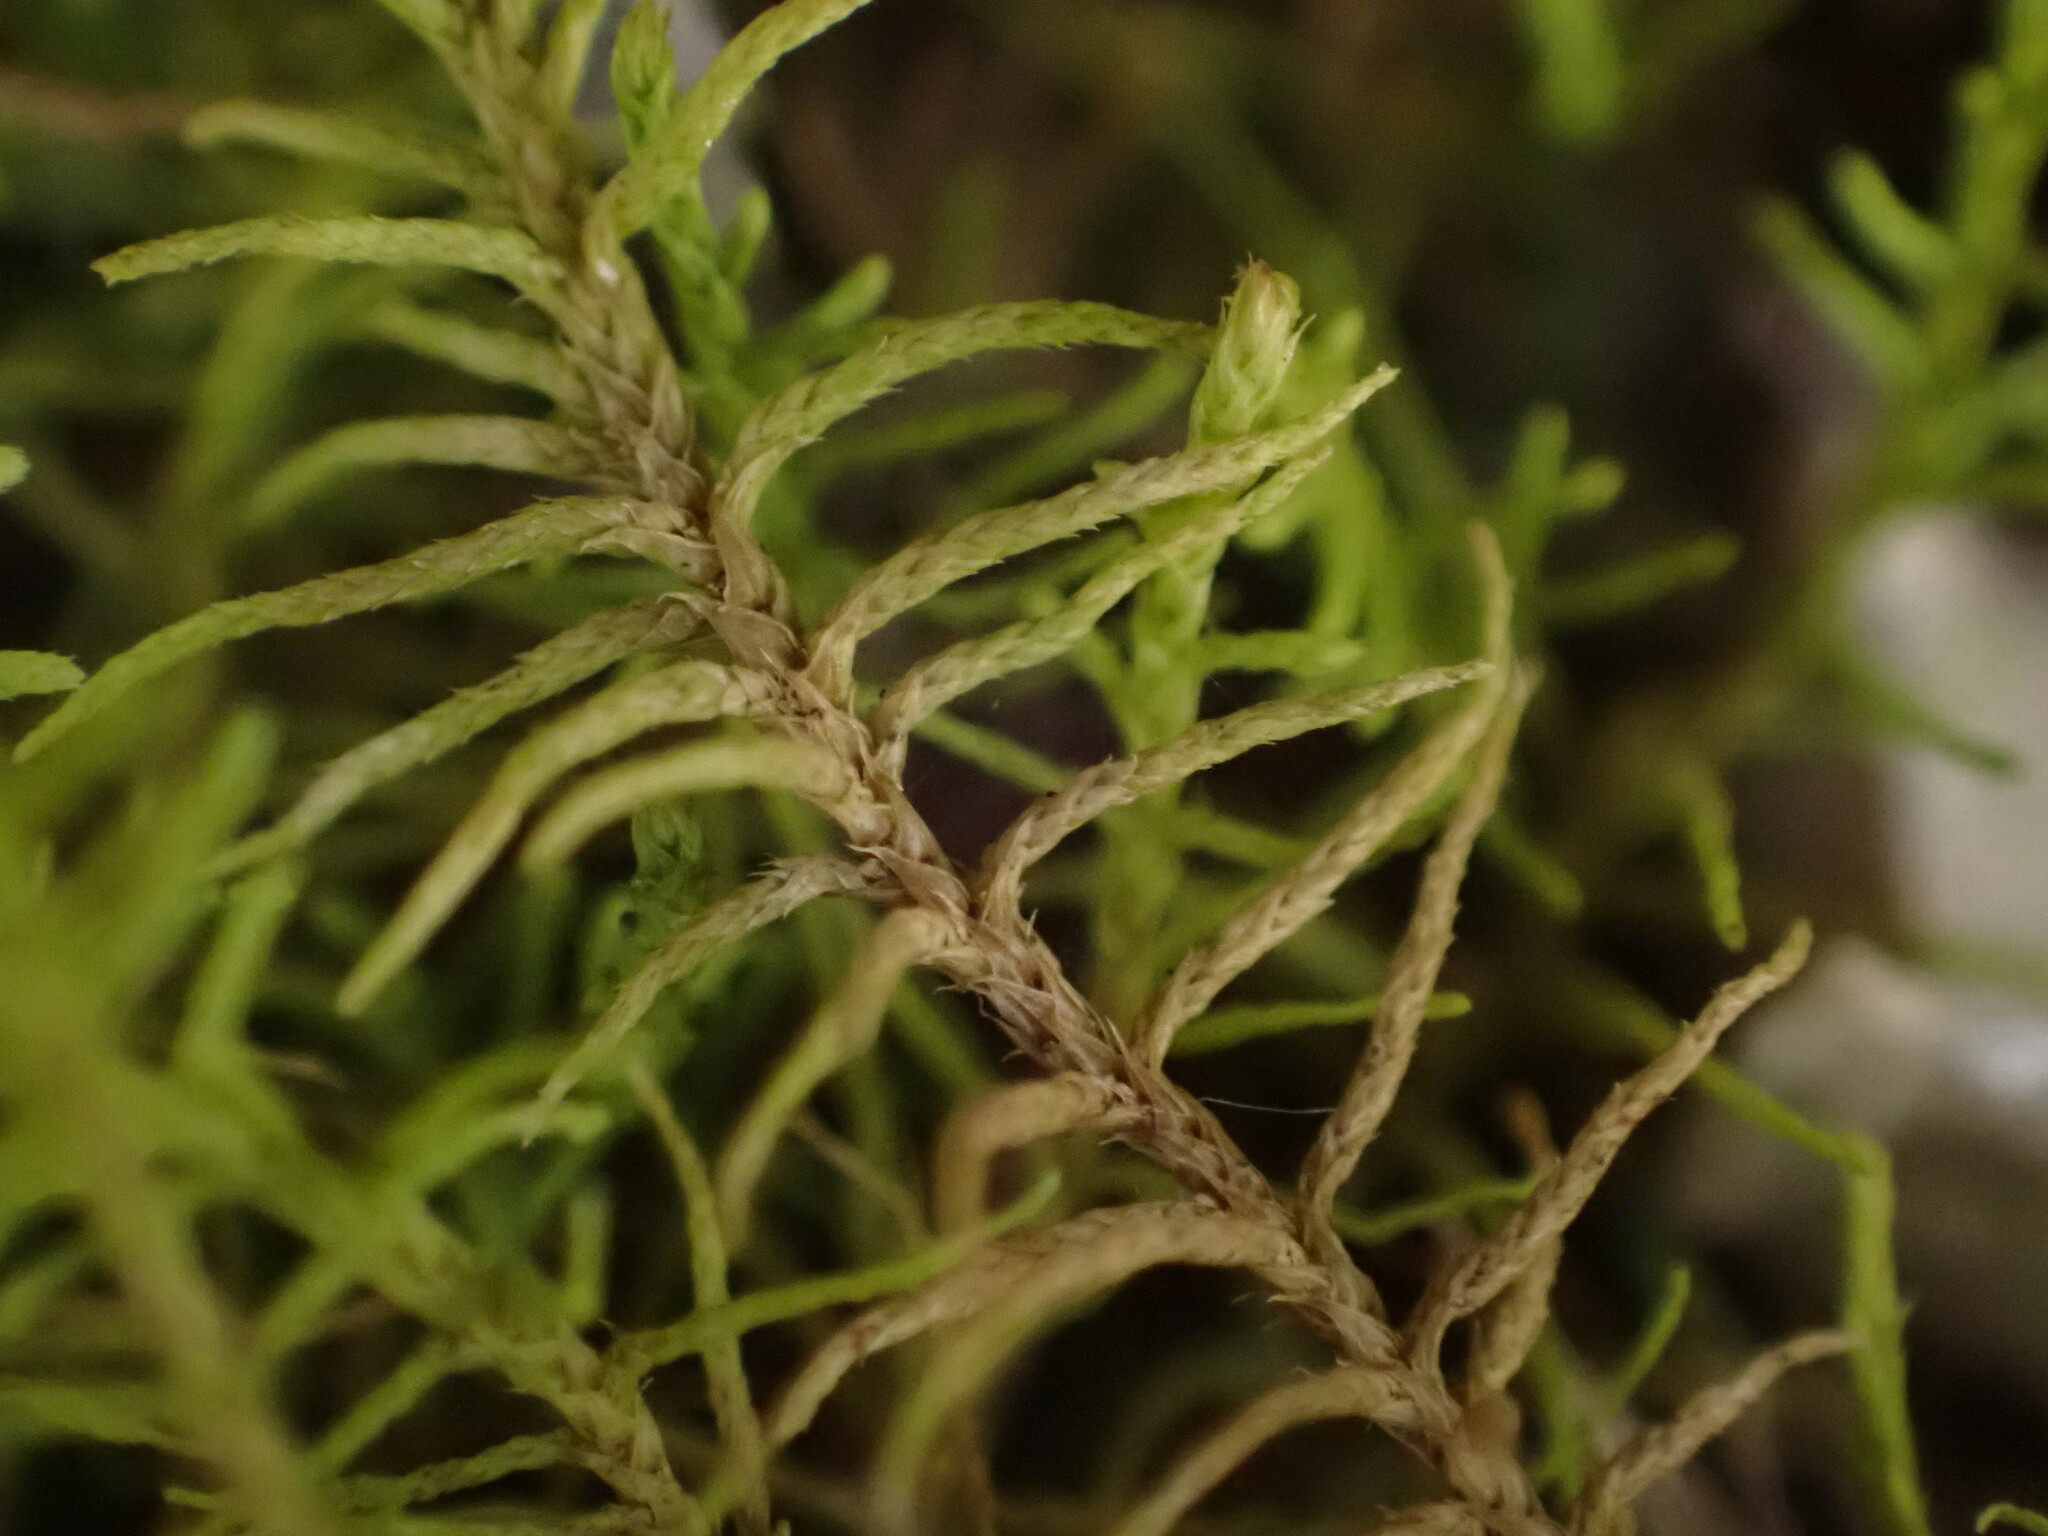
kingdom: Plantae
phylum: Bryophyta
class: Bryopsida
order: Hypnales
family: Thuidiaceae
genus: Abietinella
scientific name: Abietinella abietina
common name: Wiry fern moss
